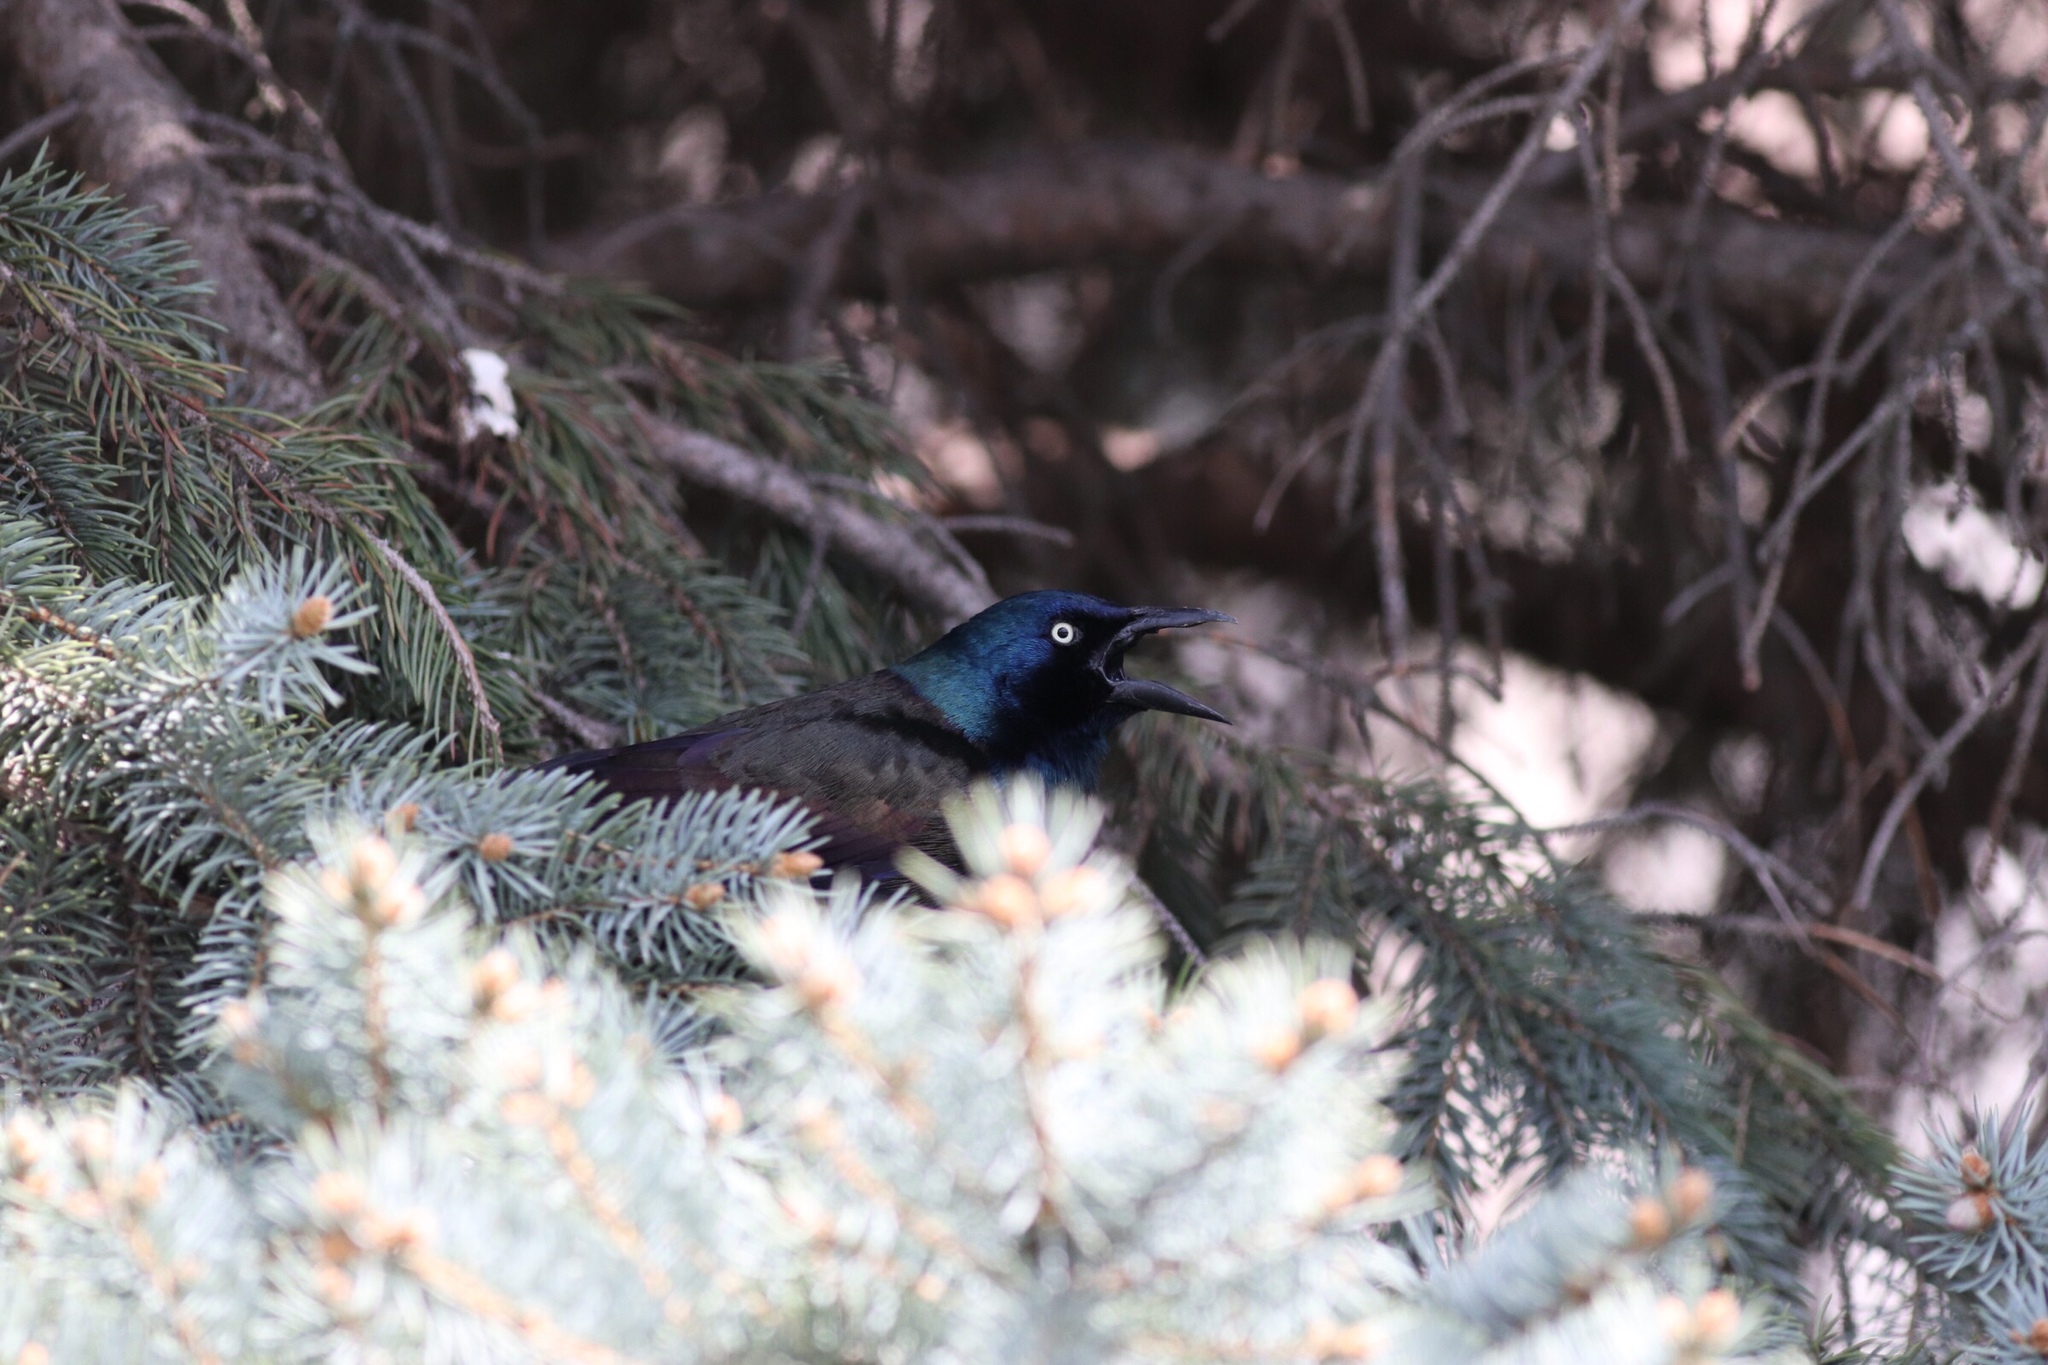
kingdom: Animalia
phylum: Chordata
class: Aves
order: Passeriformes
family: Icteridae
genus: Quiscalus
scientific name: Quiscalus quiscula
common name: Common grackle
